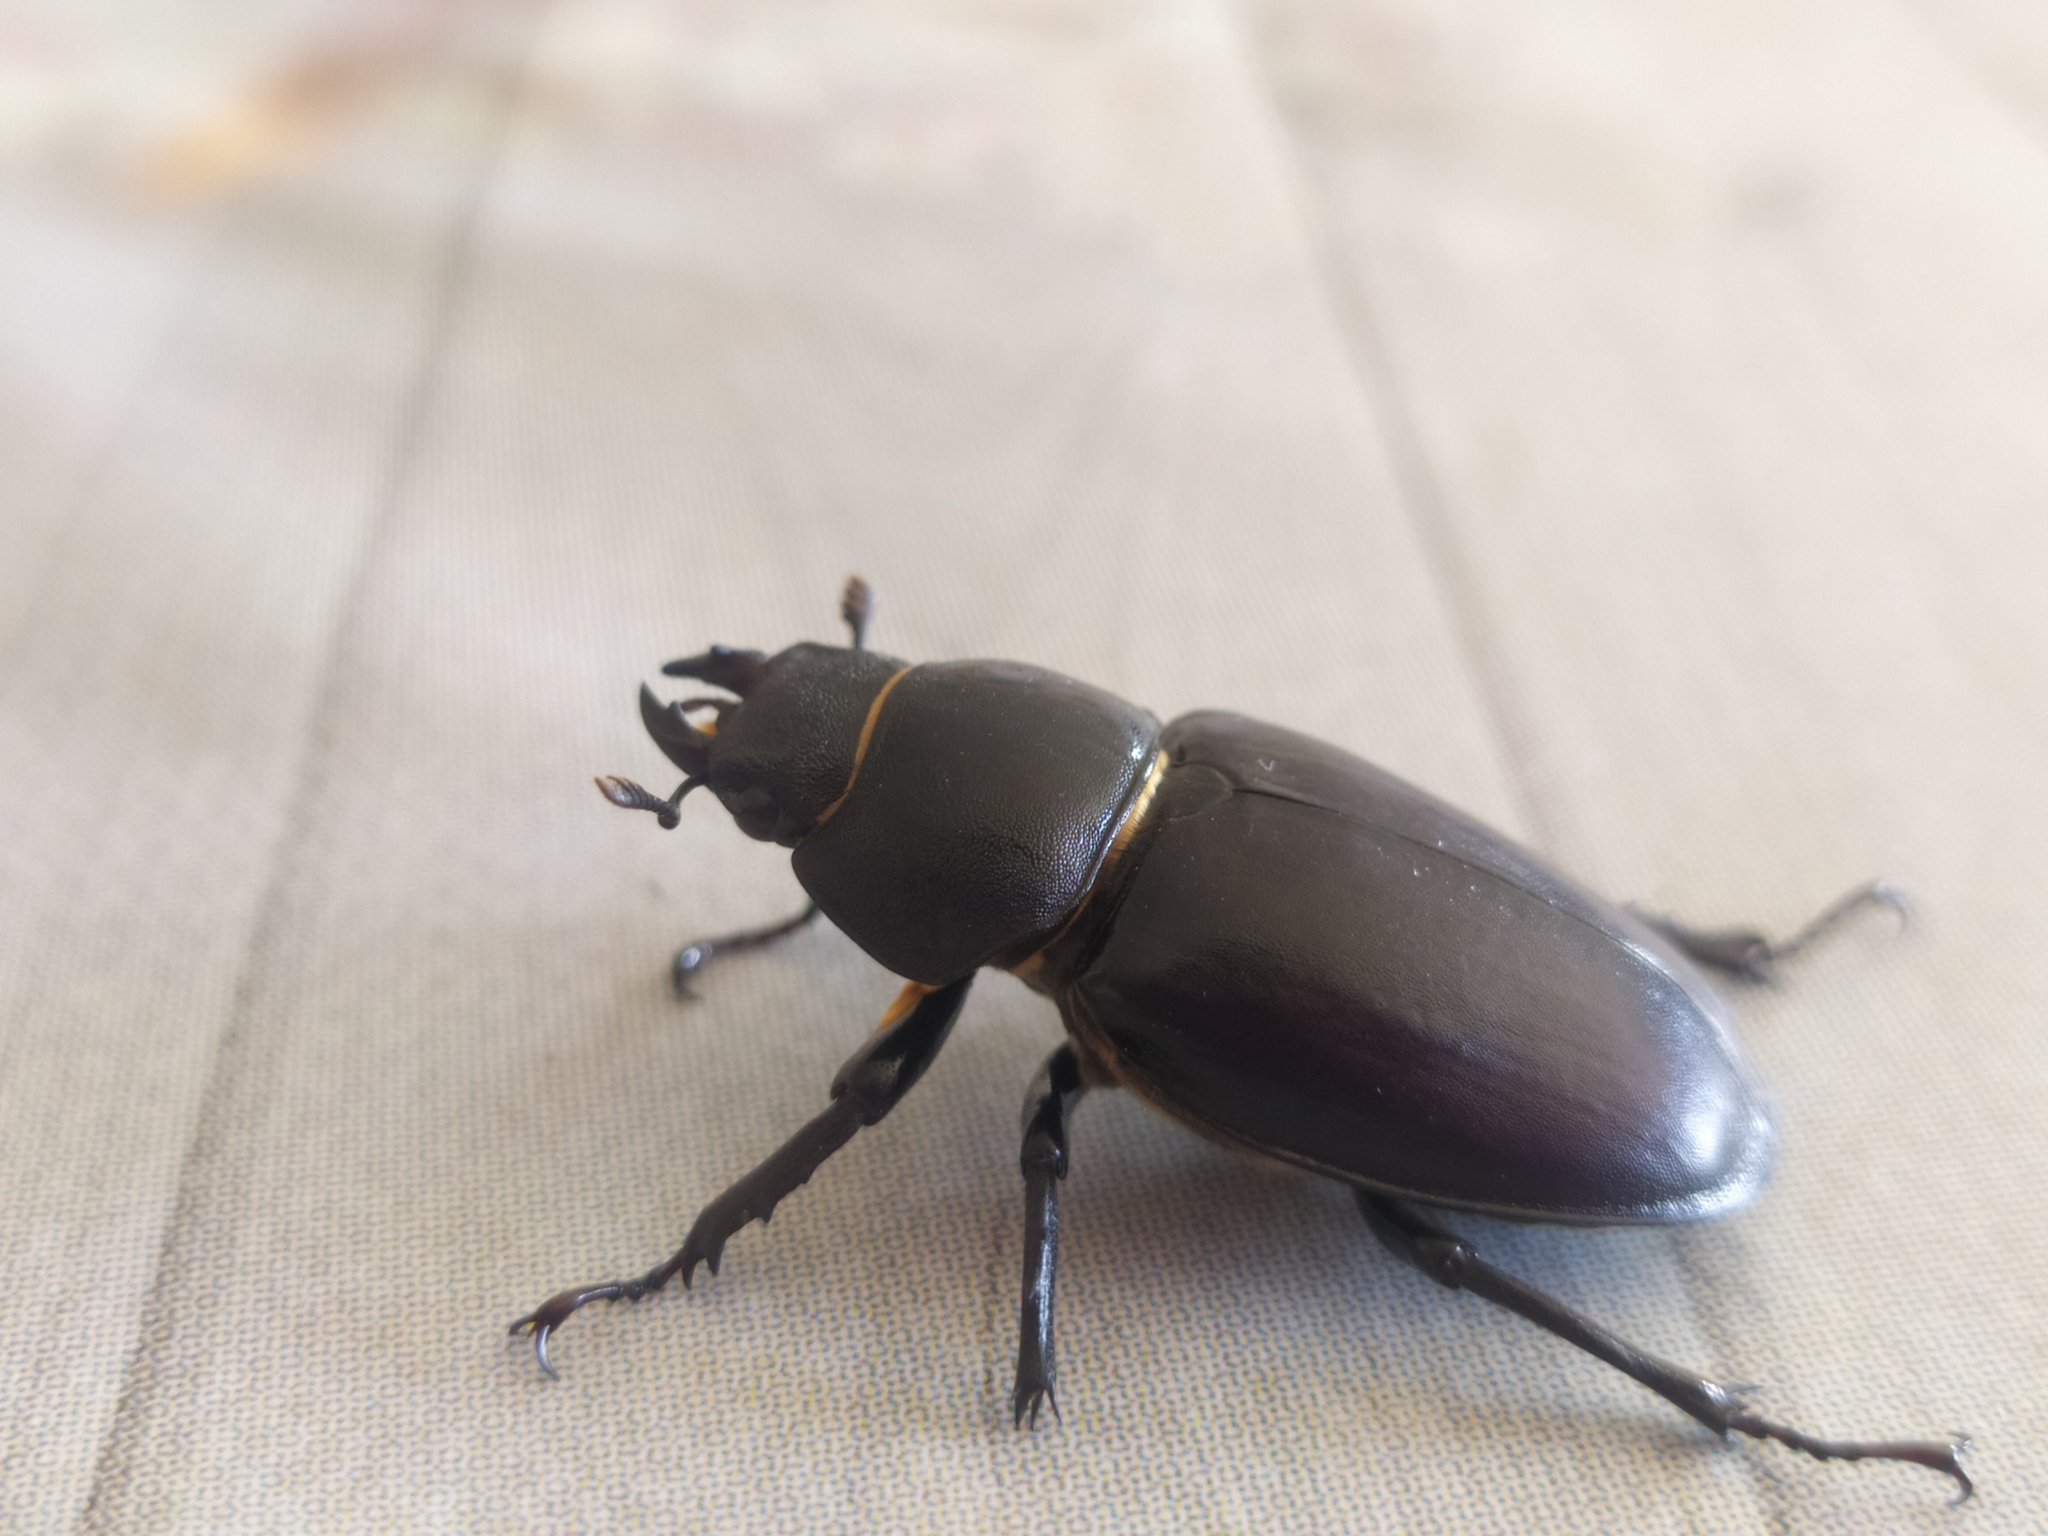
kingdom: Animalia
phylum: Arthropoda
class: Insecta
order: Coleoptera
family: Lucanidae
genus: Lucanus
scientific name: Lucanus cervus
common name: Stag beetle
